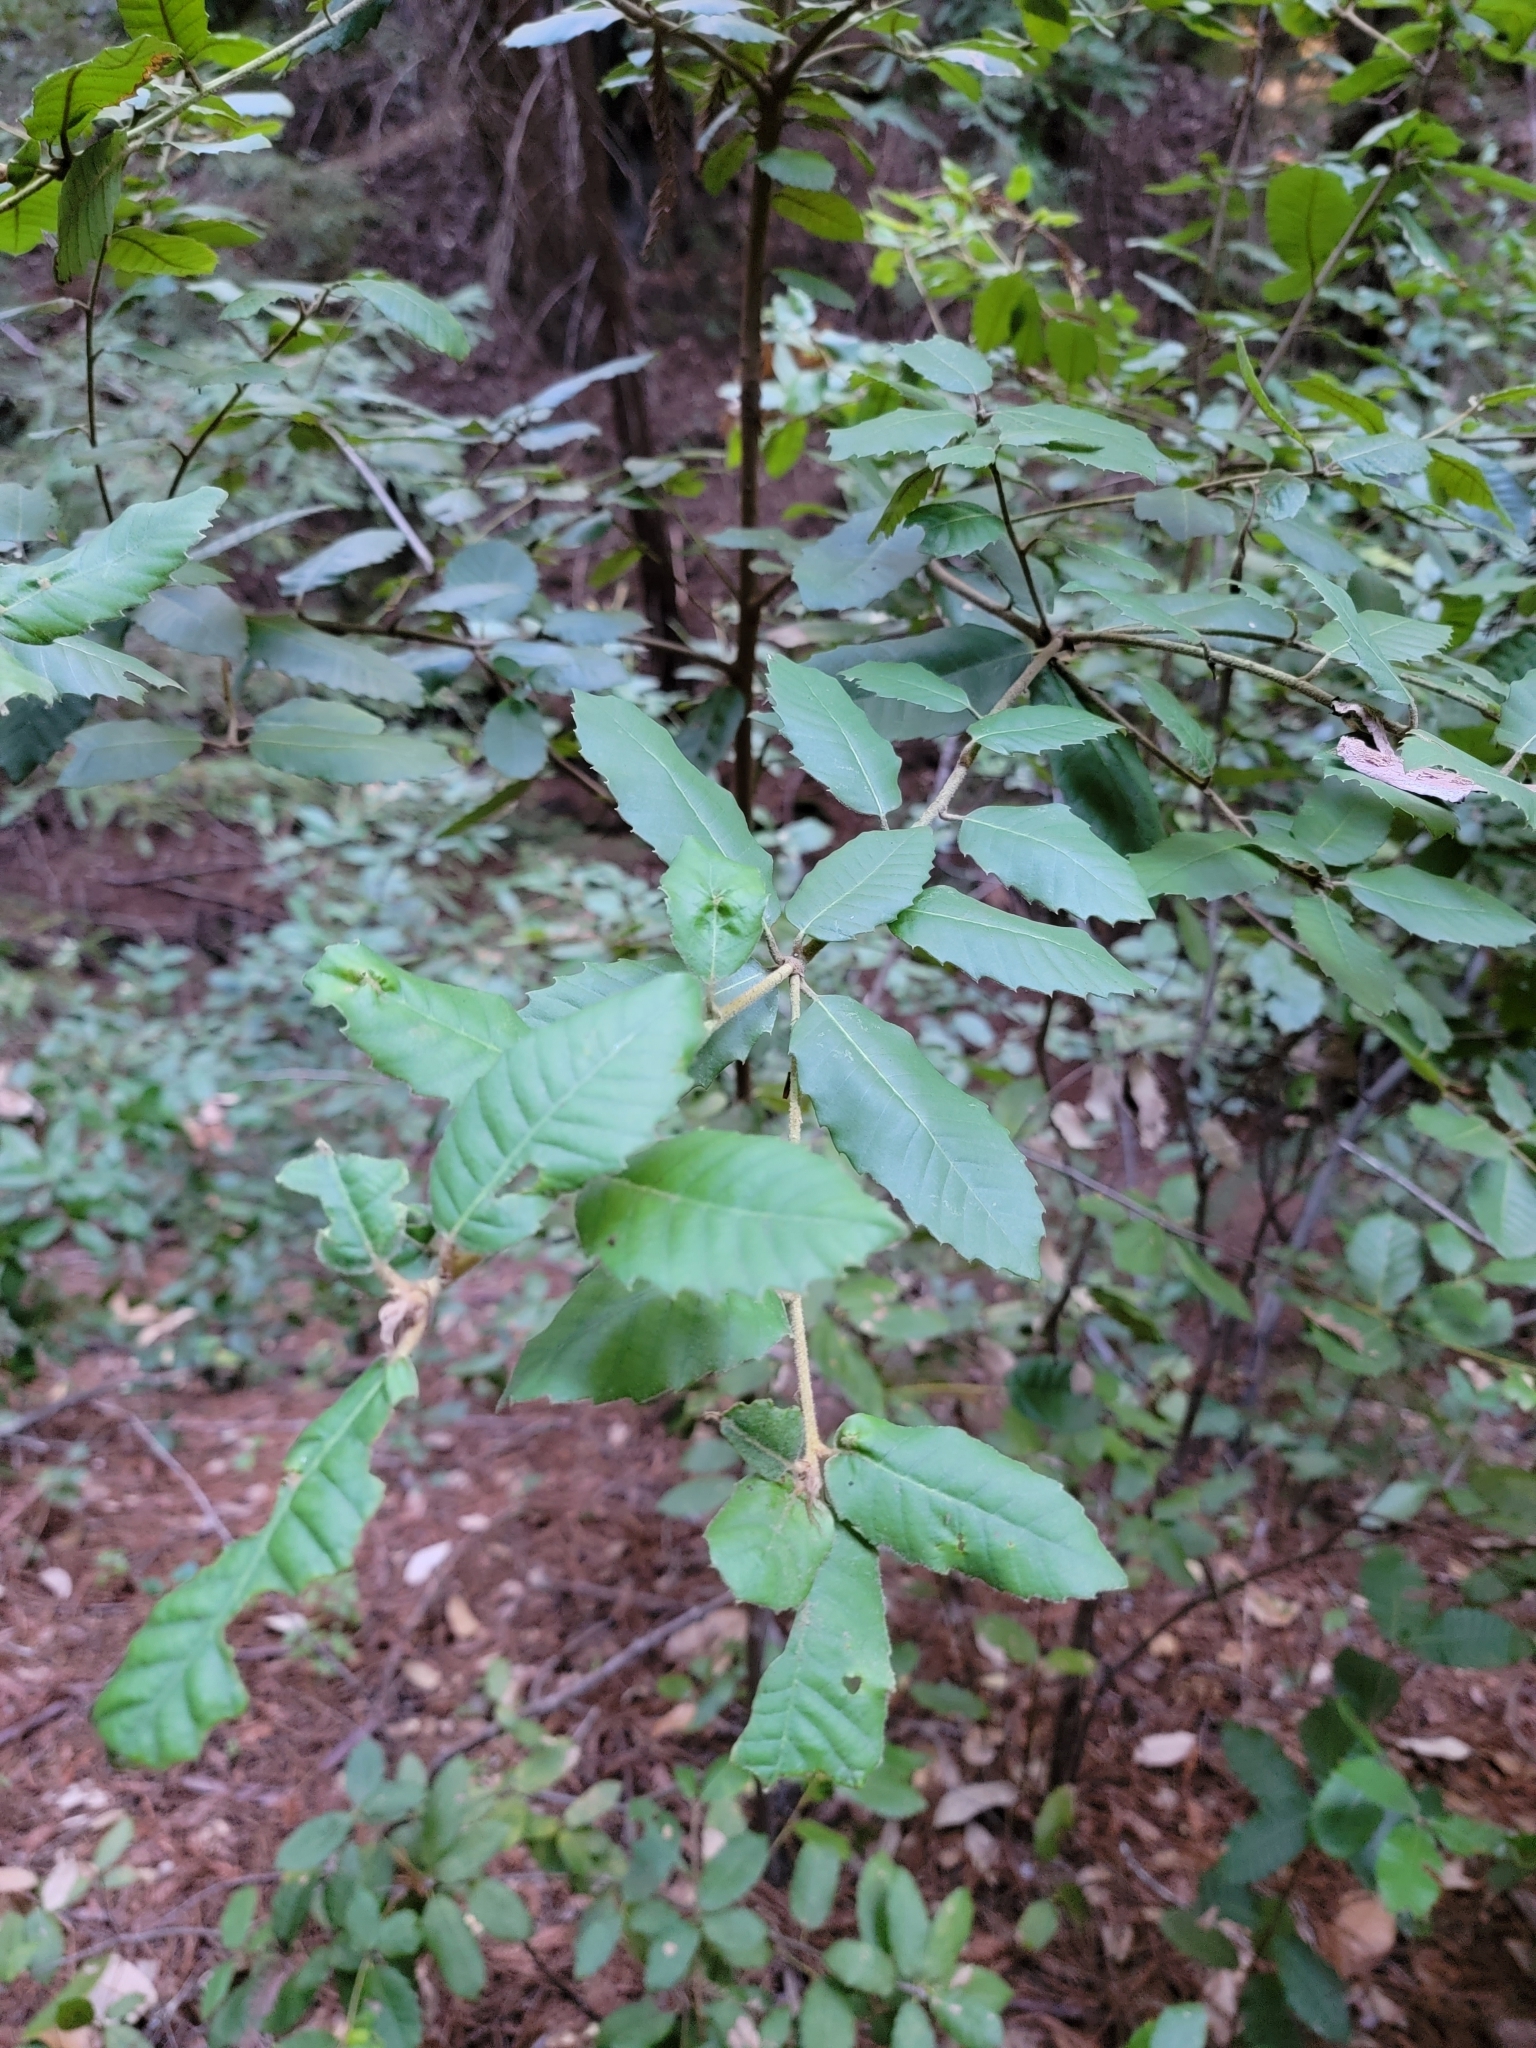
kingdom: Plantae
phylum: Tracheophyta
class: Magnoliopsida
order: Fagales
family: Fagaceae
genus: Notholithocarpus
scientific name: Notholithocarpus densiflorus
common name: Tan bark oak
